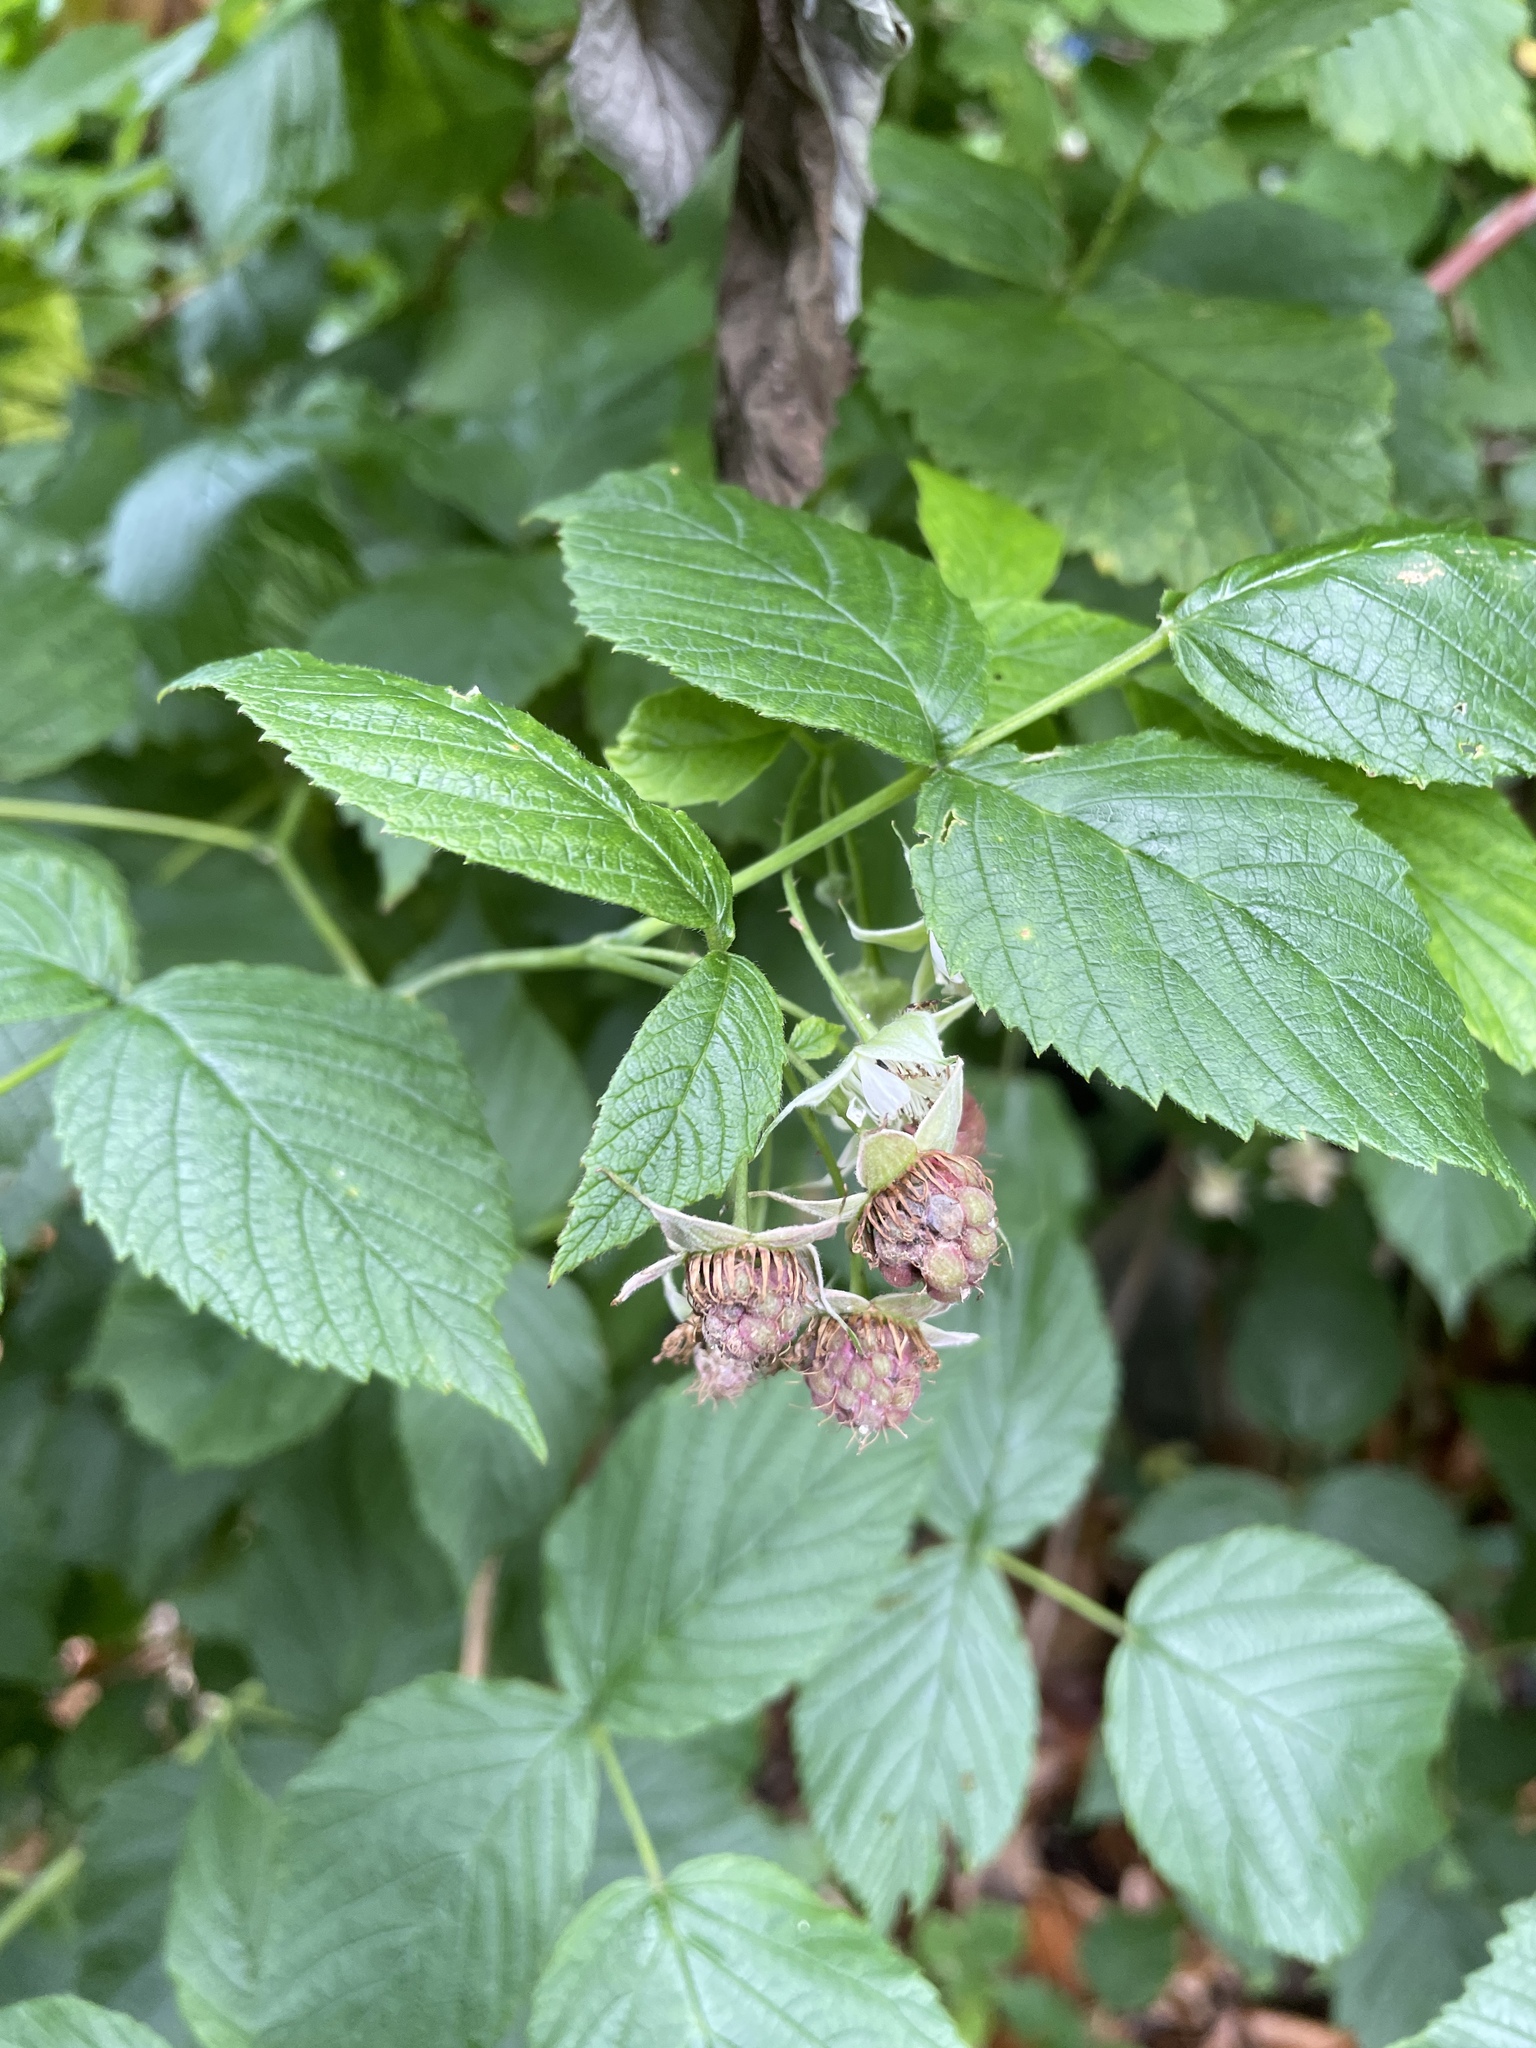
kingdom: Plantae
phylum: Tracheophyta
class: Magnoliopsida
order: Rosales
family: Rosaceae
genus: Rubus
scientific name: Rubus idaeus
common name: Raspberry
